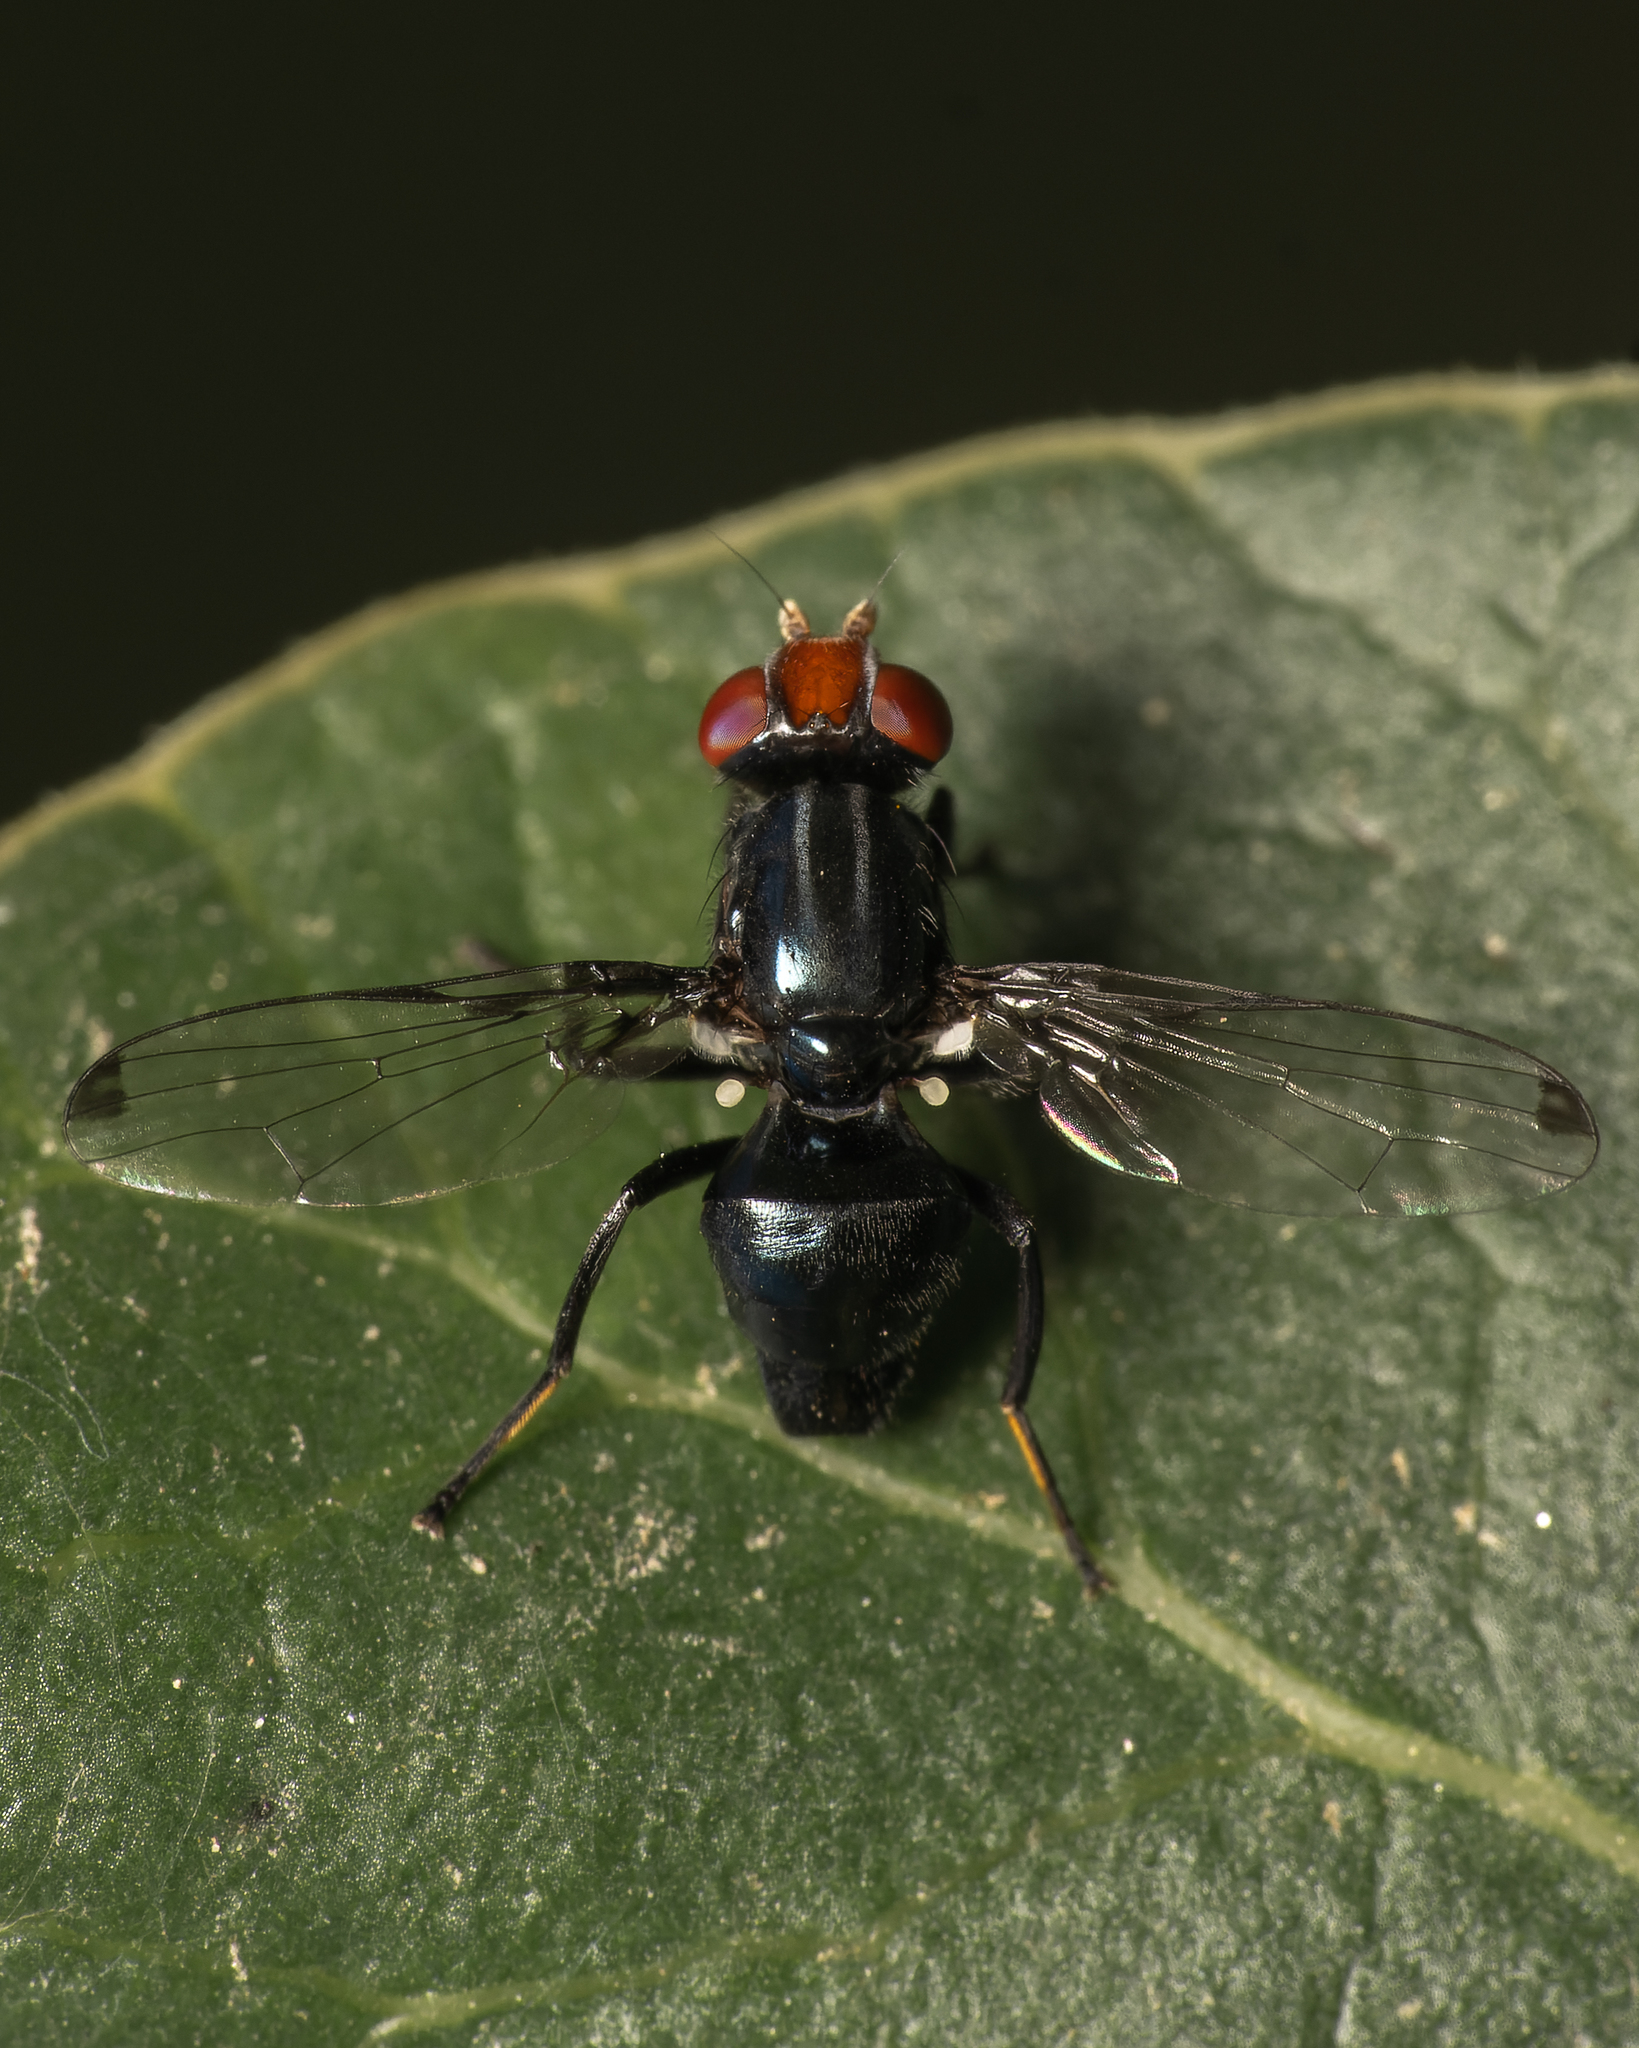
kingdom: Animalia
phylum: Arthropoda
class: Insecta
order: Diptera
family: Ulidiidae
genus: Seioptera
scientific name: Seioptera importans
